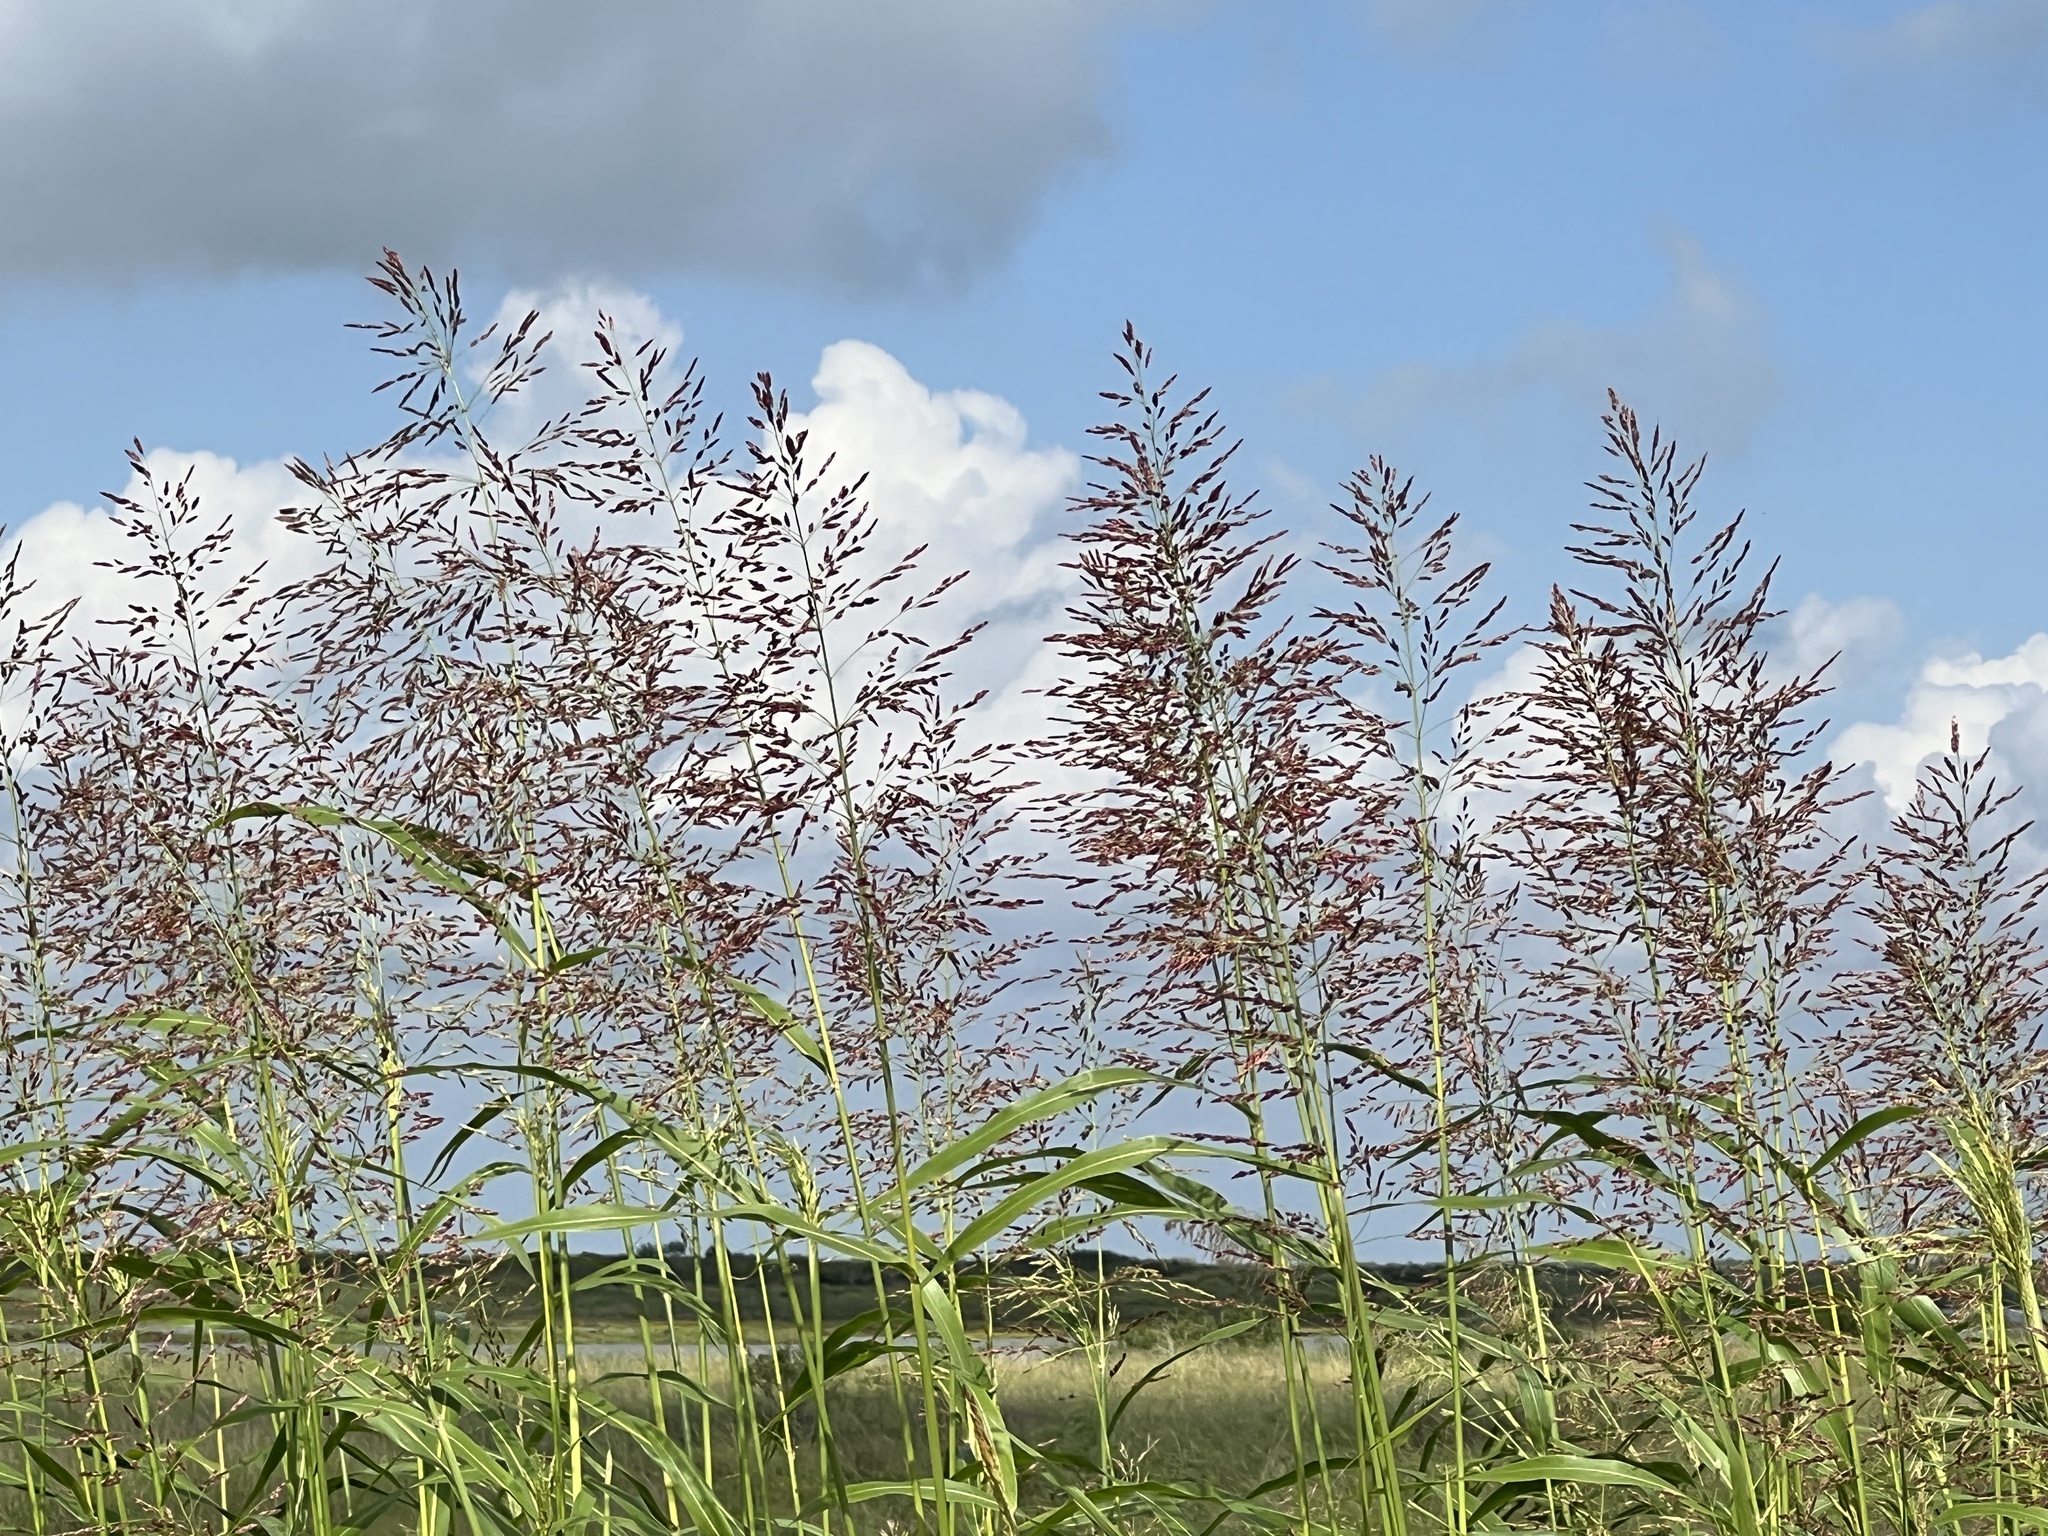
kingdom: Plantae
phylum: Tracheophyta
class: Liliopsida
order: Poales
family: Poaceae
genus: Sorghum
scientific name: Sorghum halepense
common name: Johnson-grass
